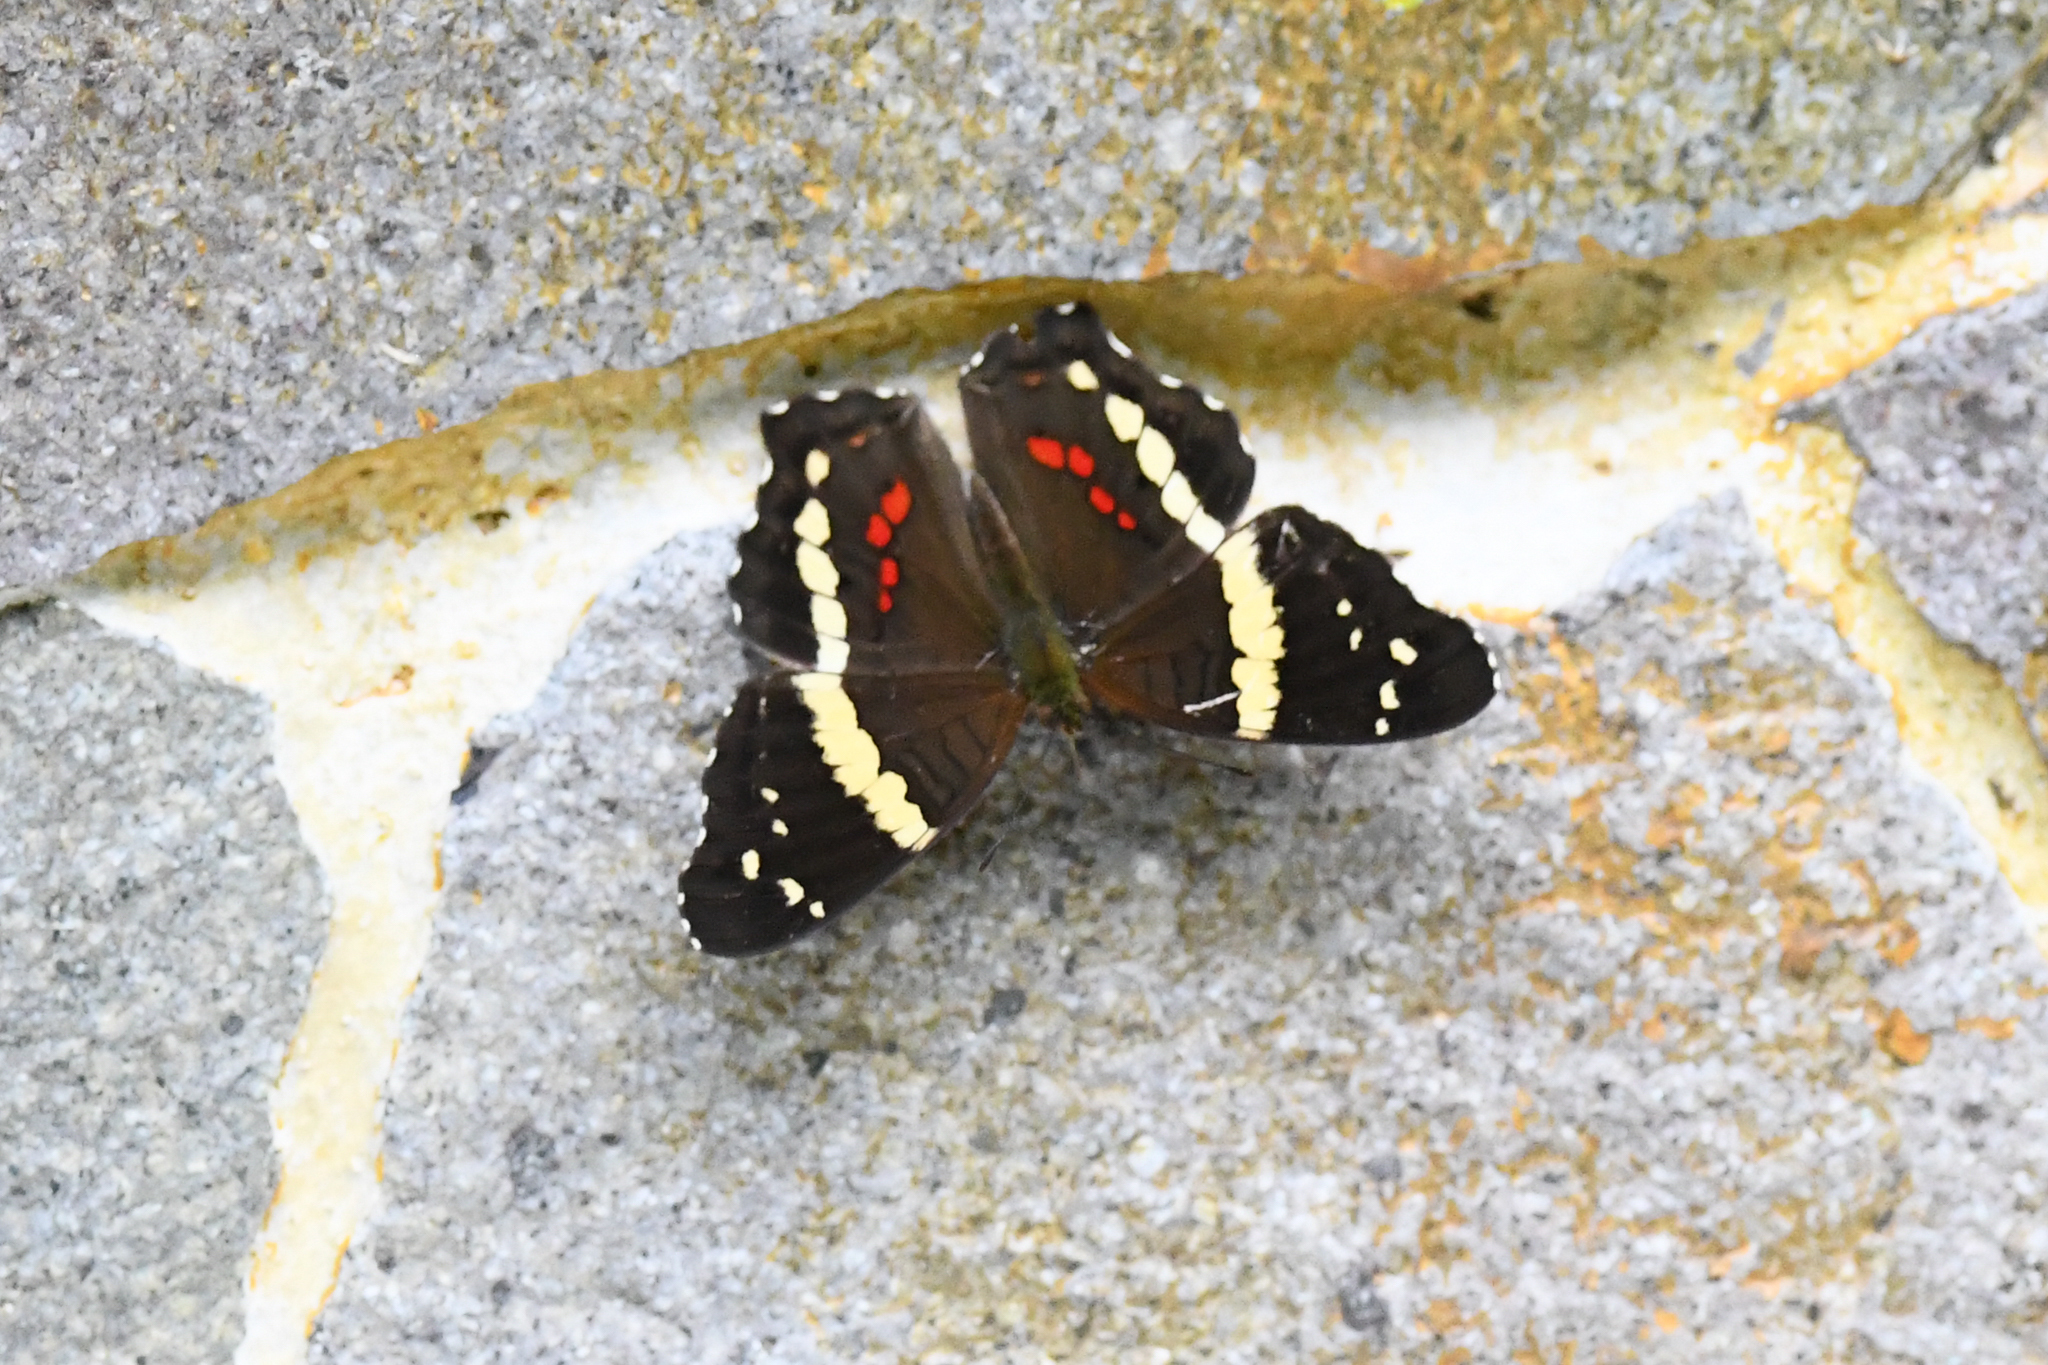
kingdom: Animalia
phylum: Arthropoda
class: Insecta
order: Lepidoptera
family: Nymphalidae
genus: Anartia
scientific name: Anartia fatima
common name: Banded peacock
